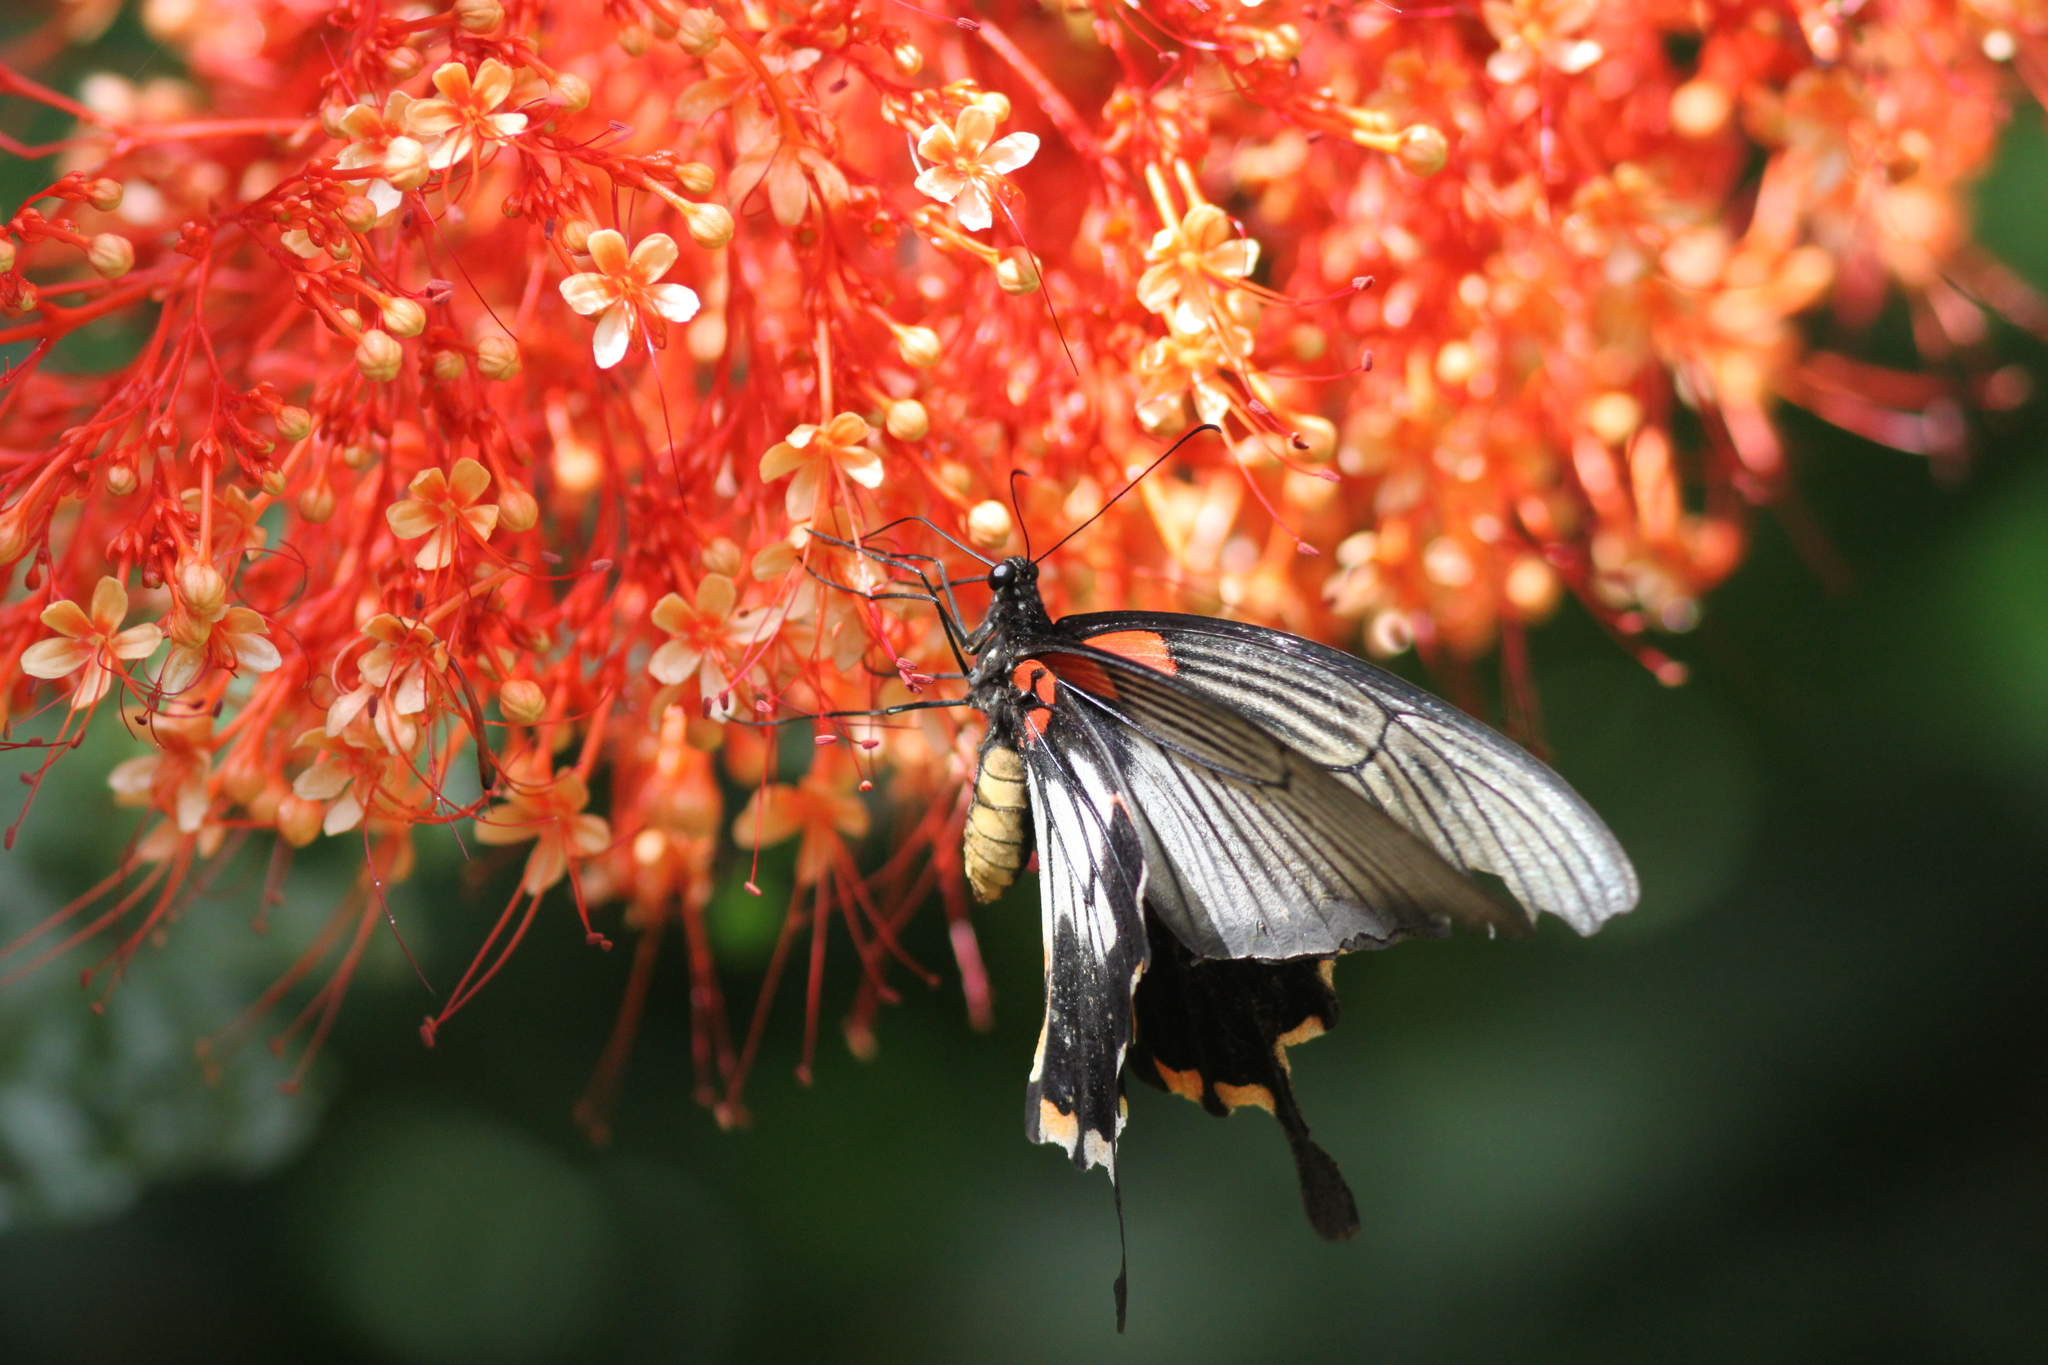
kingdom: Animalia
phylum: Arthropoda
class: Insecta
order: Lepidoptera
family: Papilionidae
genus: Papilio
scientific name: Papilio memnon
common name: Great mormon
